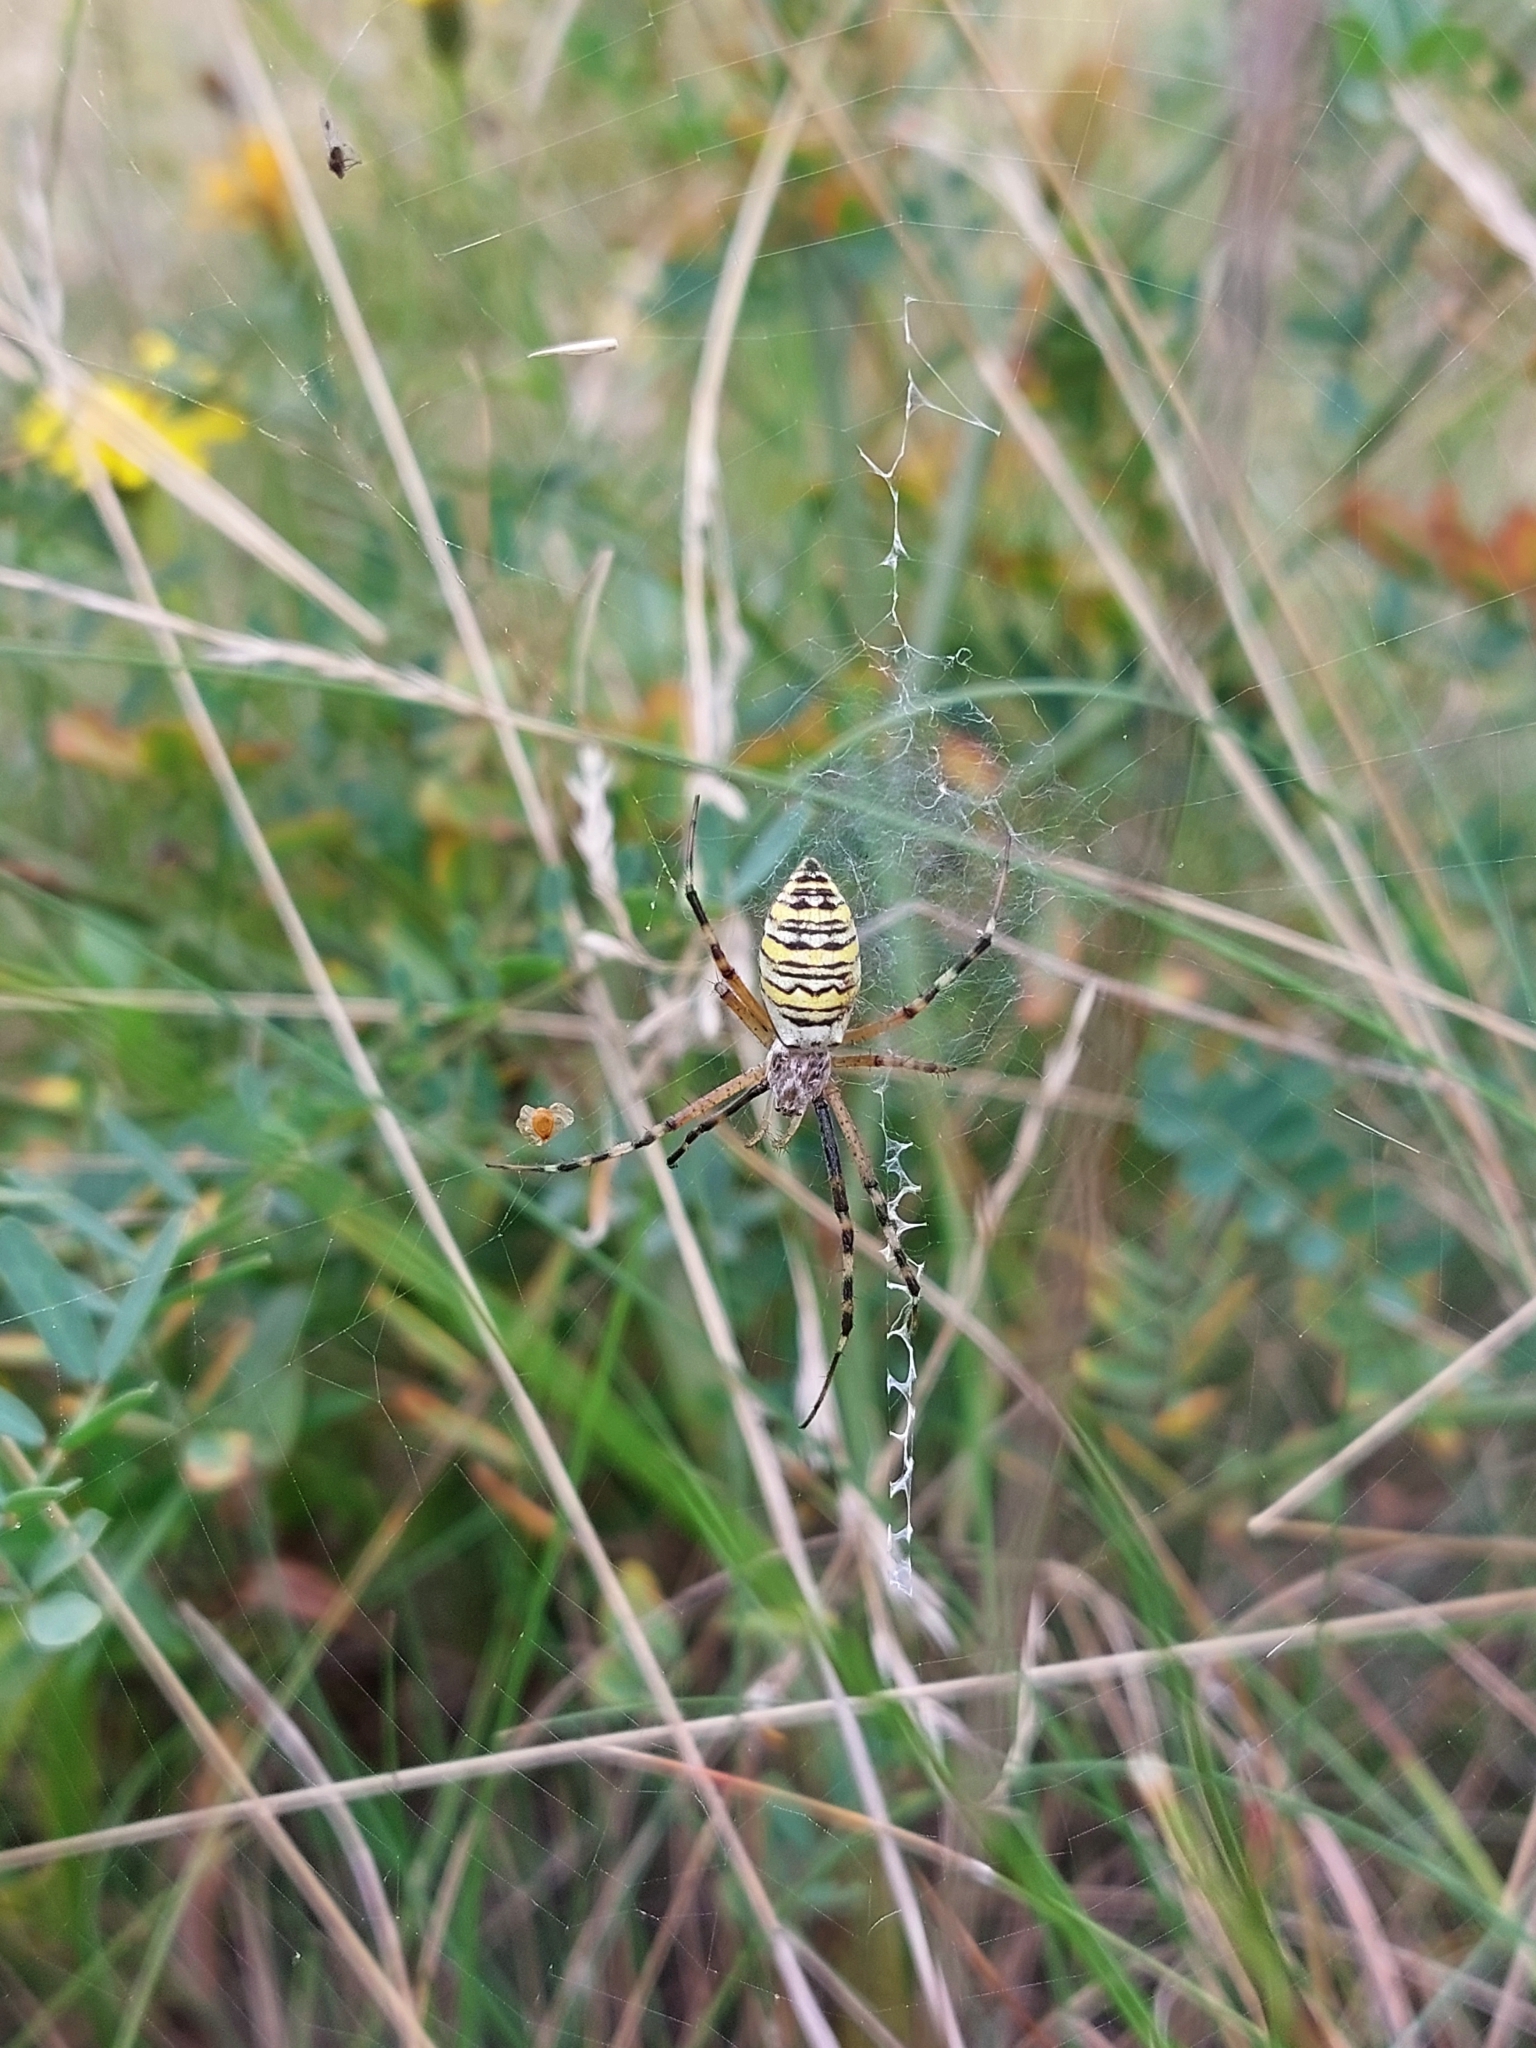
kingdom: Animalia
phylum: Arthropoda
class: Arachnida
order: Araneae
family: Araneidae
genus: Argiope
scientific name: Argiope bruennichi
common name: Wasp spider
